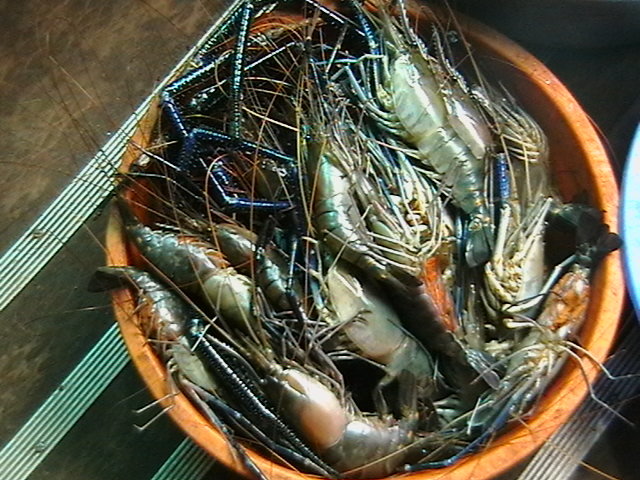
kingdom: Animalia
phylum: Arthropoda
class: Malacostraca
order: Decapoda
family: Palaemonidae
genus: Macrobrachium
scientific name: Macrobrachium rosenbergii
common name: Giant river prawn
